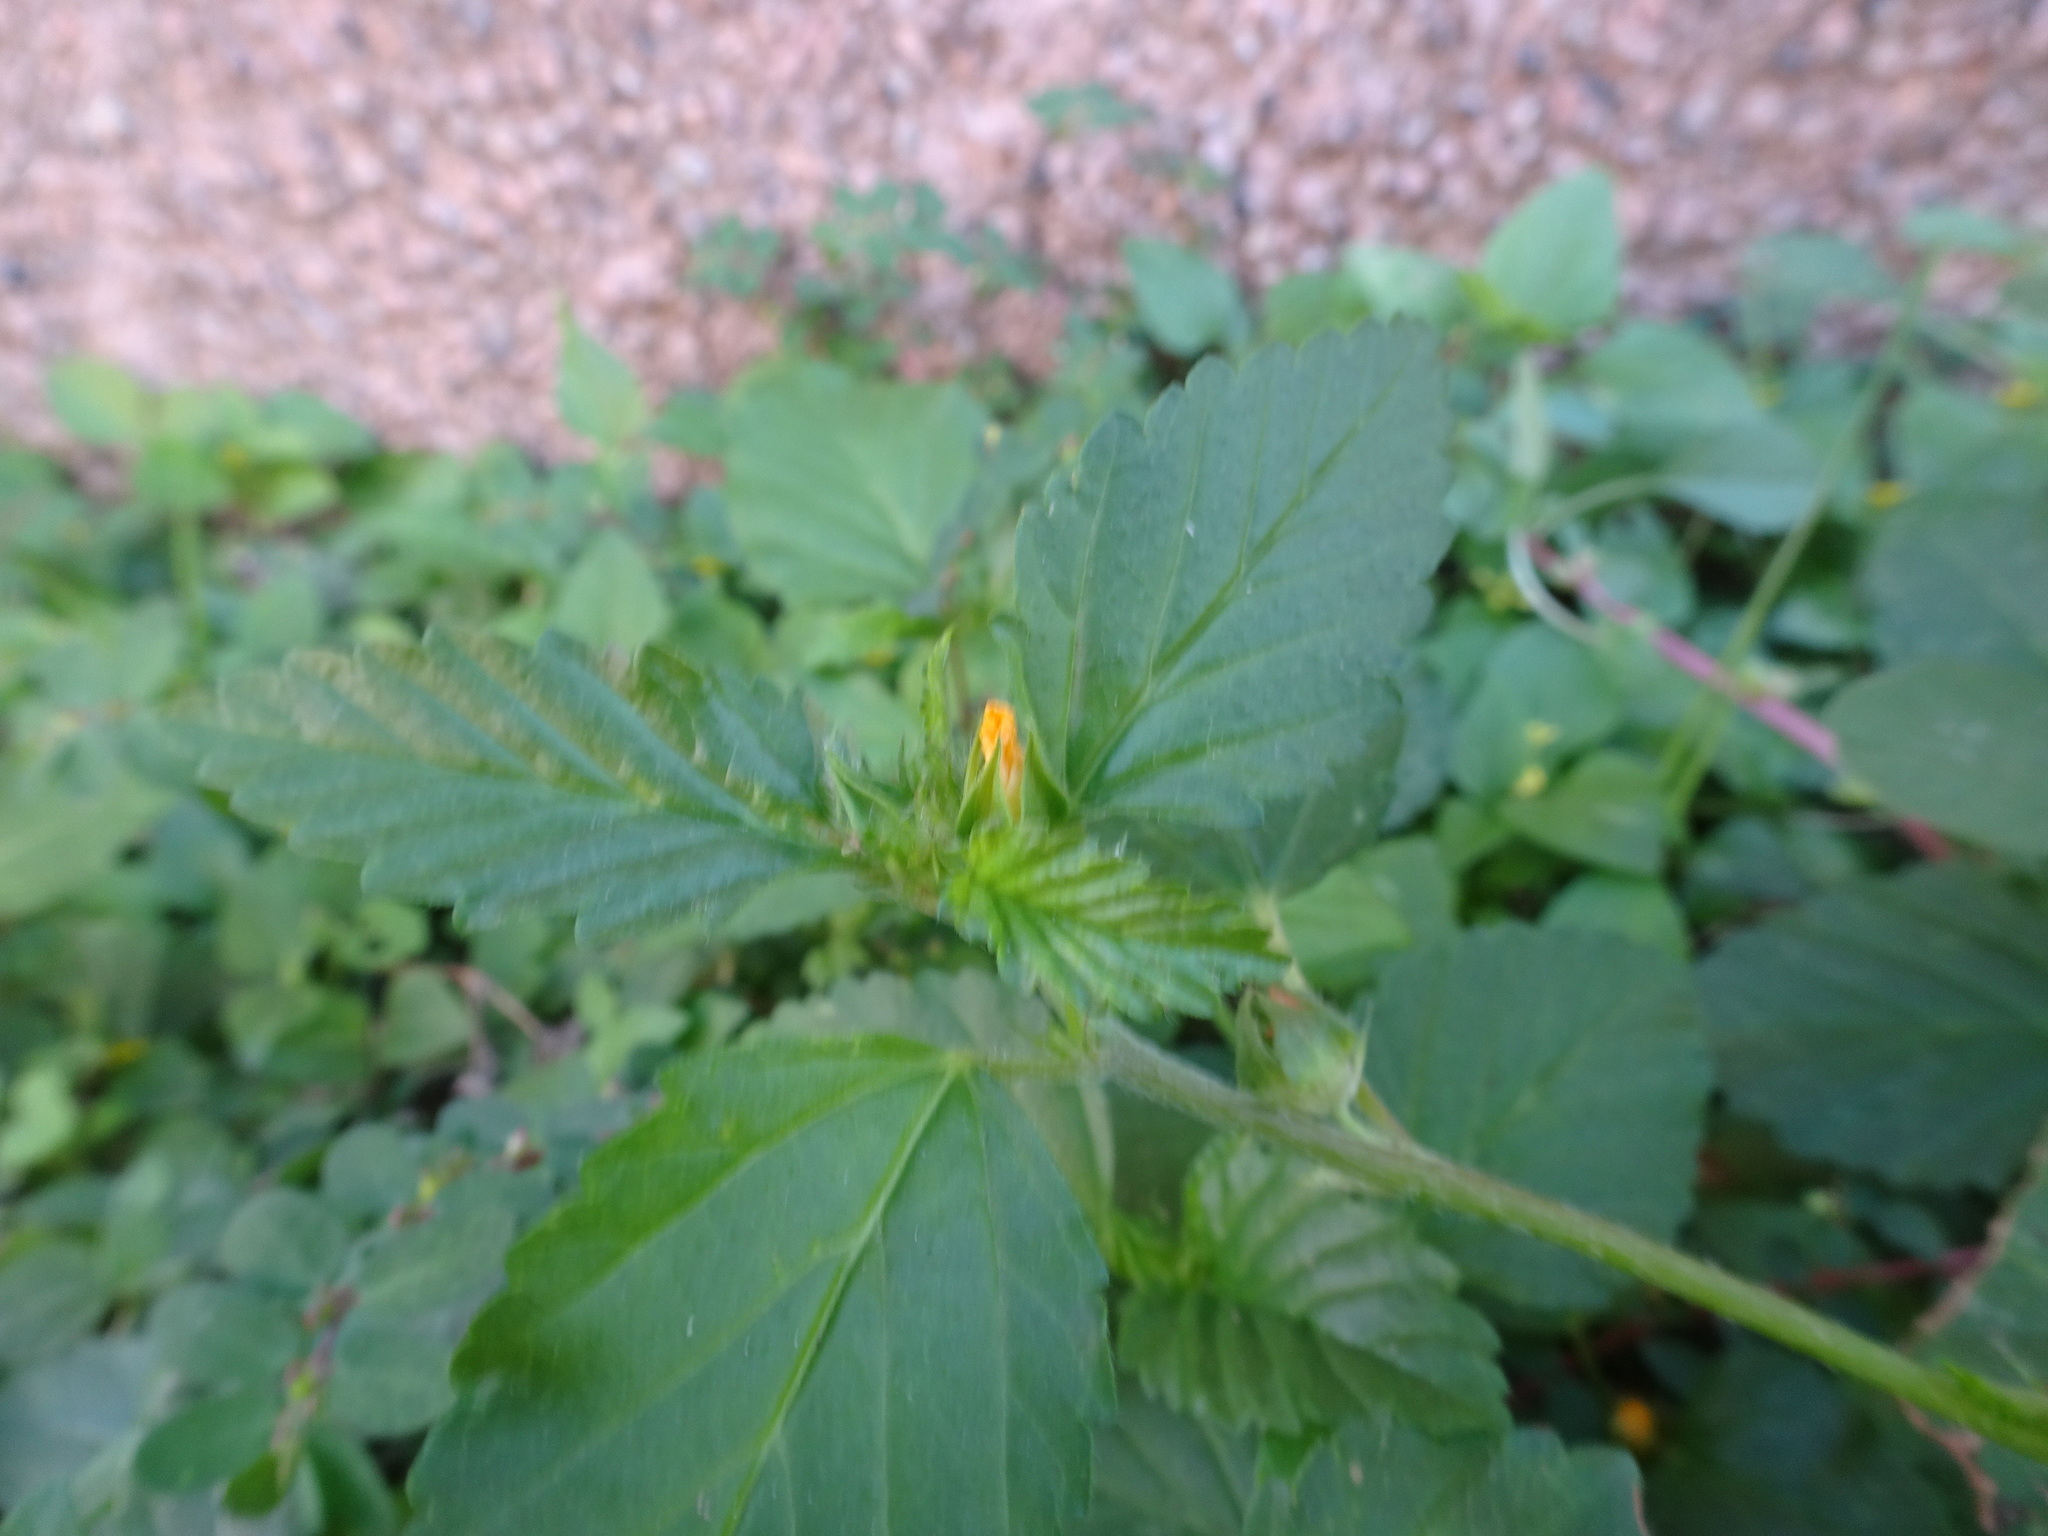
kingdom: Plantae
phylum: Tracheophyta
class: Magnoliopsida
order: Malvales
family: Malvaceae
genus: Malvastrum
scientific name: Malvastrum coromandelianum
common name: Threelobe false mallow
